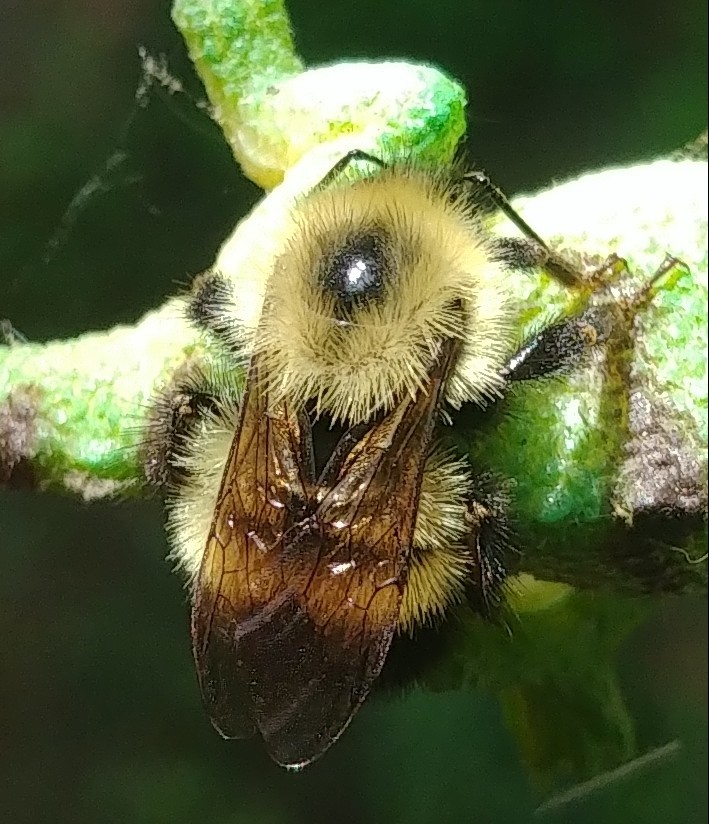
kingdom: Animalia
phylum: Arthropoda
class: Insecta
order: Hymenoptera
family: Apidae
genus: Pyrobombus
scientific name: Pyrobombus
